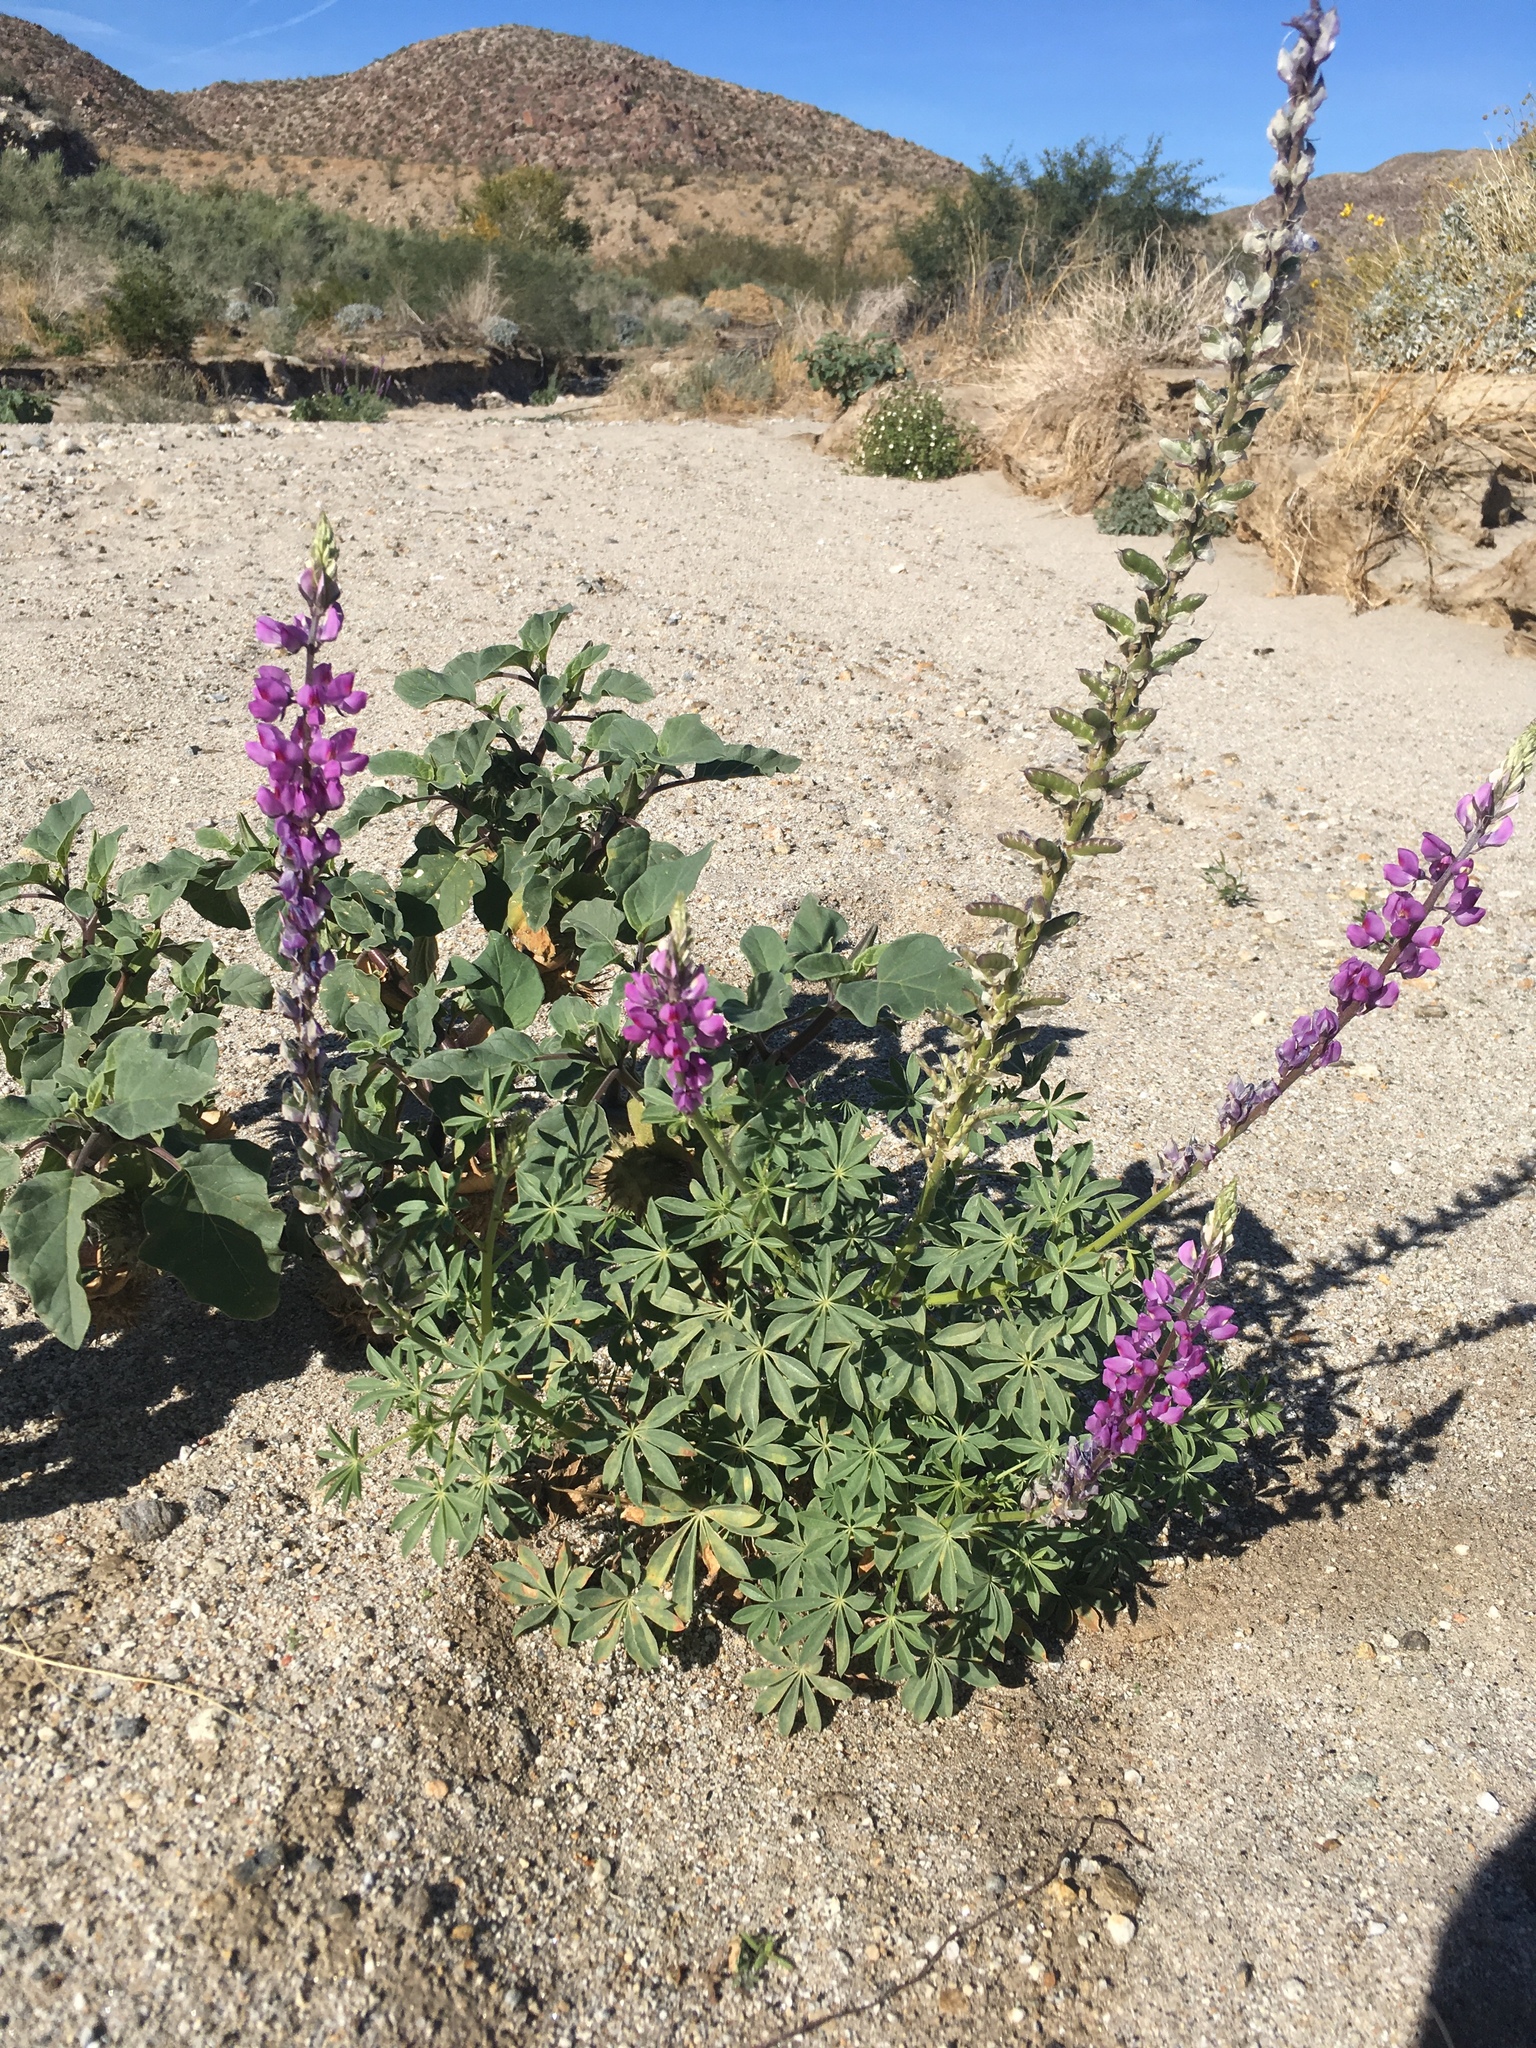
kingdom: Plantae
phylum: Tracheophyta
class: Magnoliopsida
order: Fabales
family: Fabaceae
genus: Lupinus
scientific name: Lupinus arizonicus
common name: Arizona lupine
